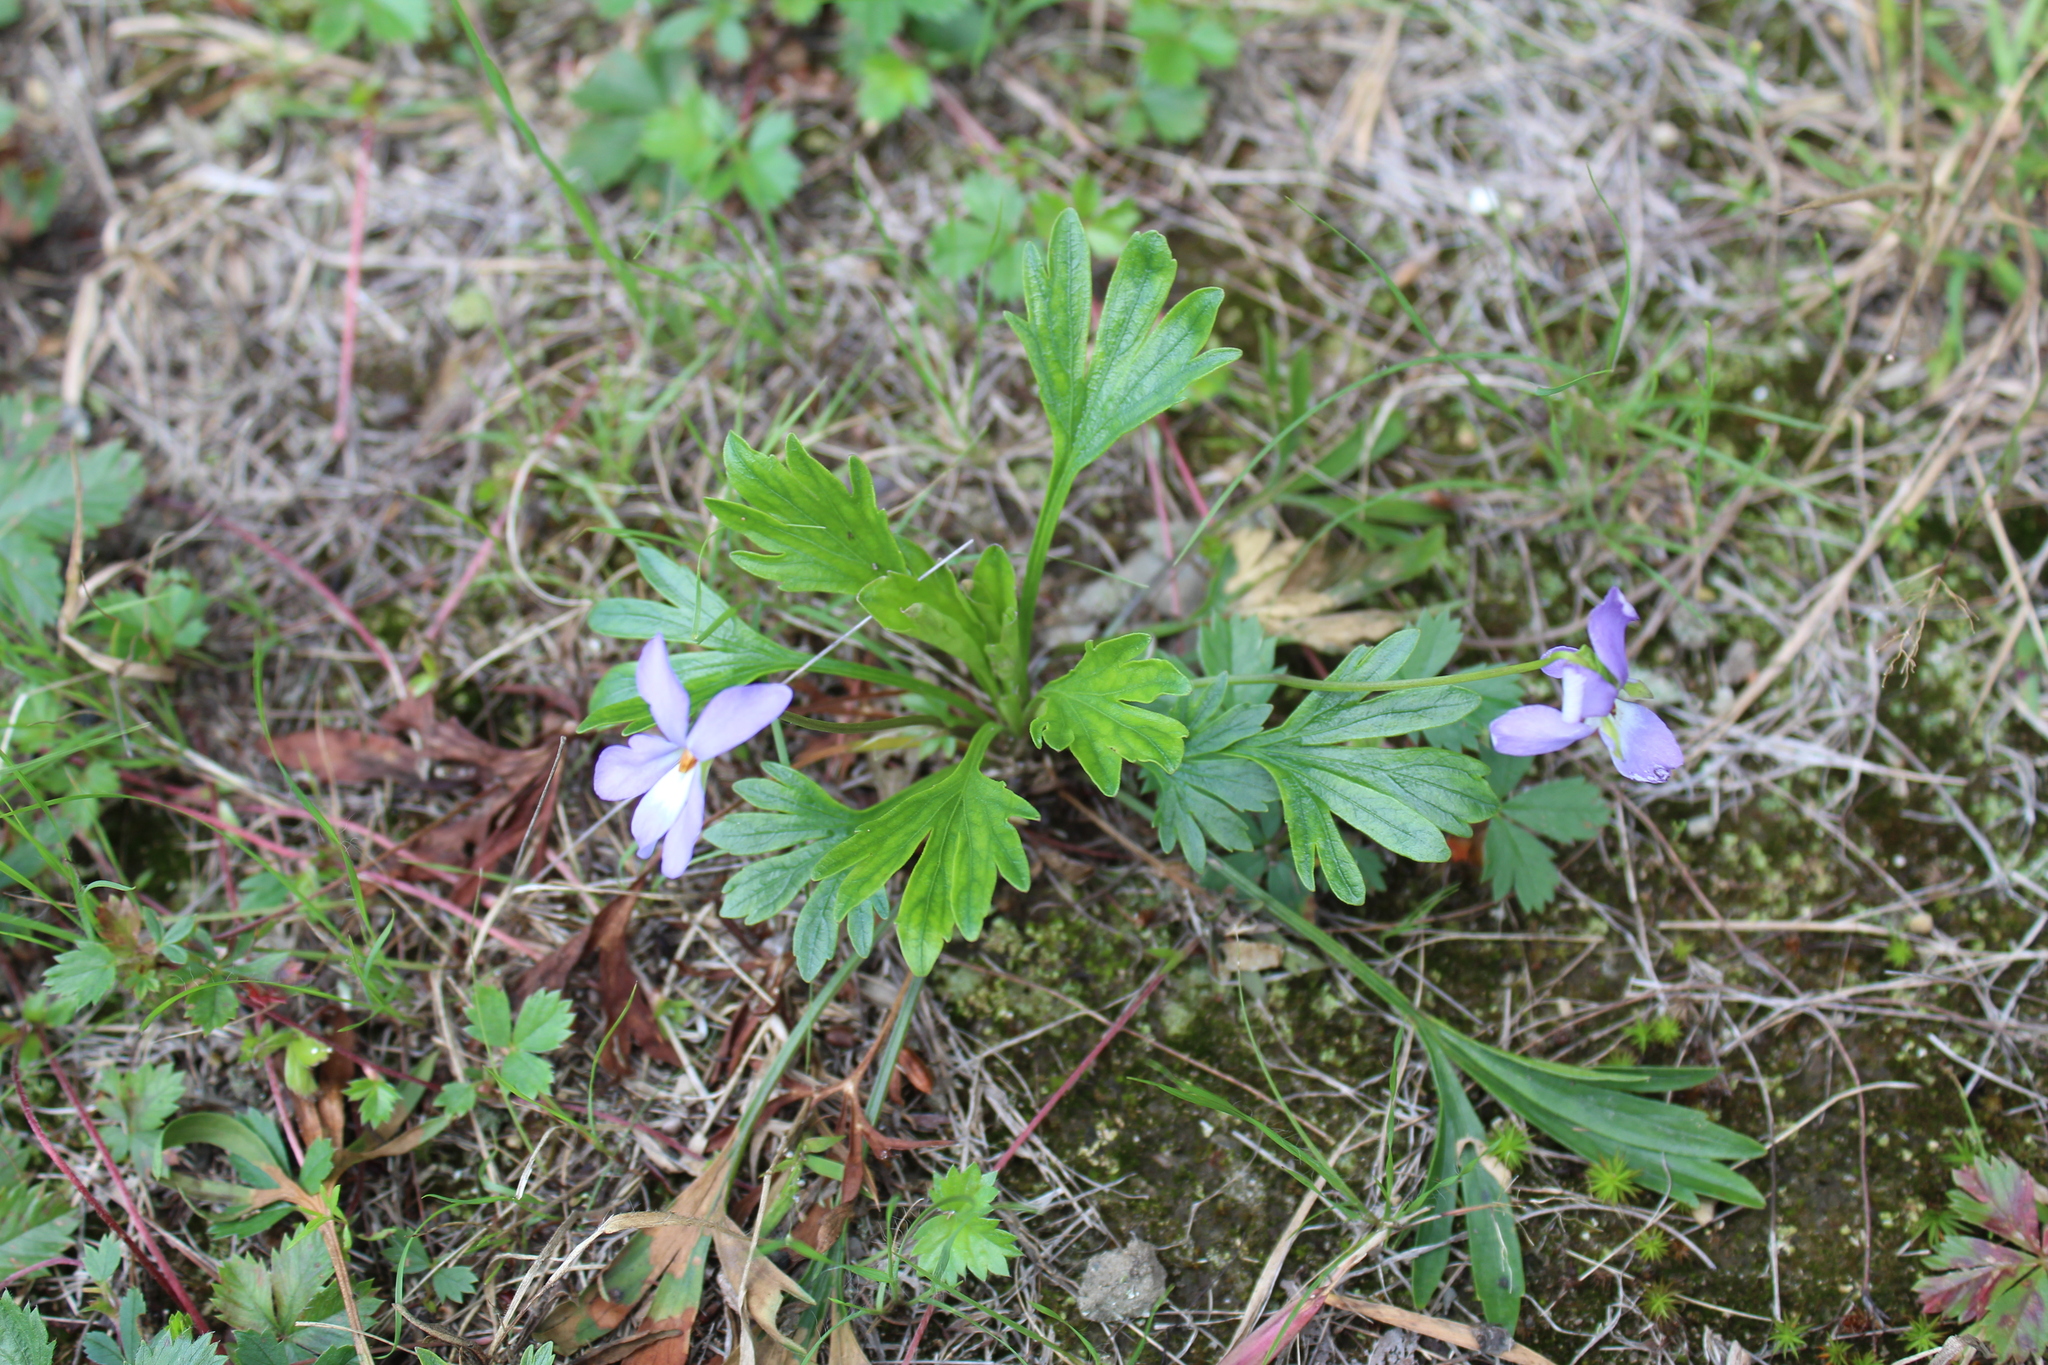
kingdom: Plantae
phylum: Tracheophyta
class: Magnoliopsida
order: Malpighiales
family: Violaceae
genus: Viola
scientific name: Viola pedata
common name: Pansy violet
